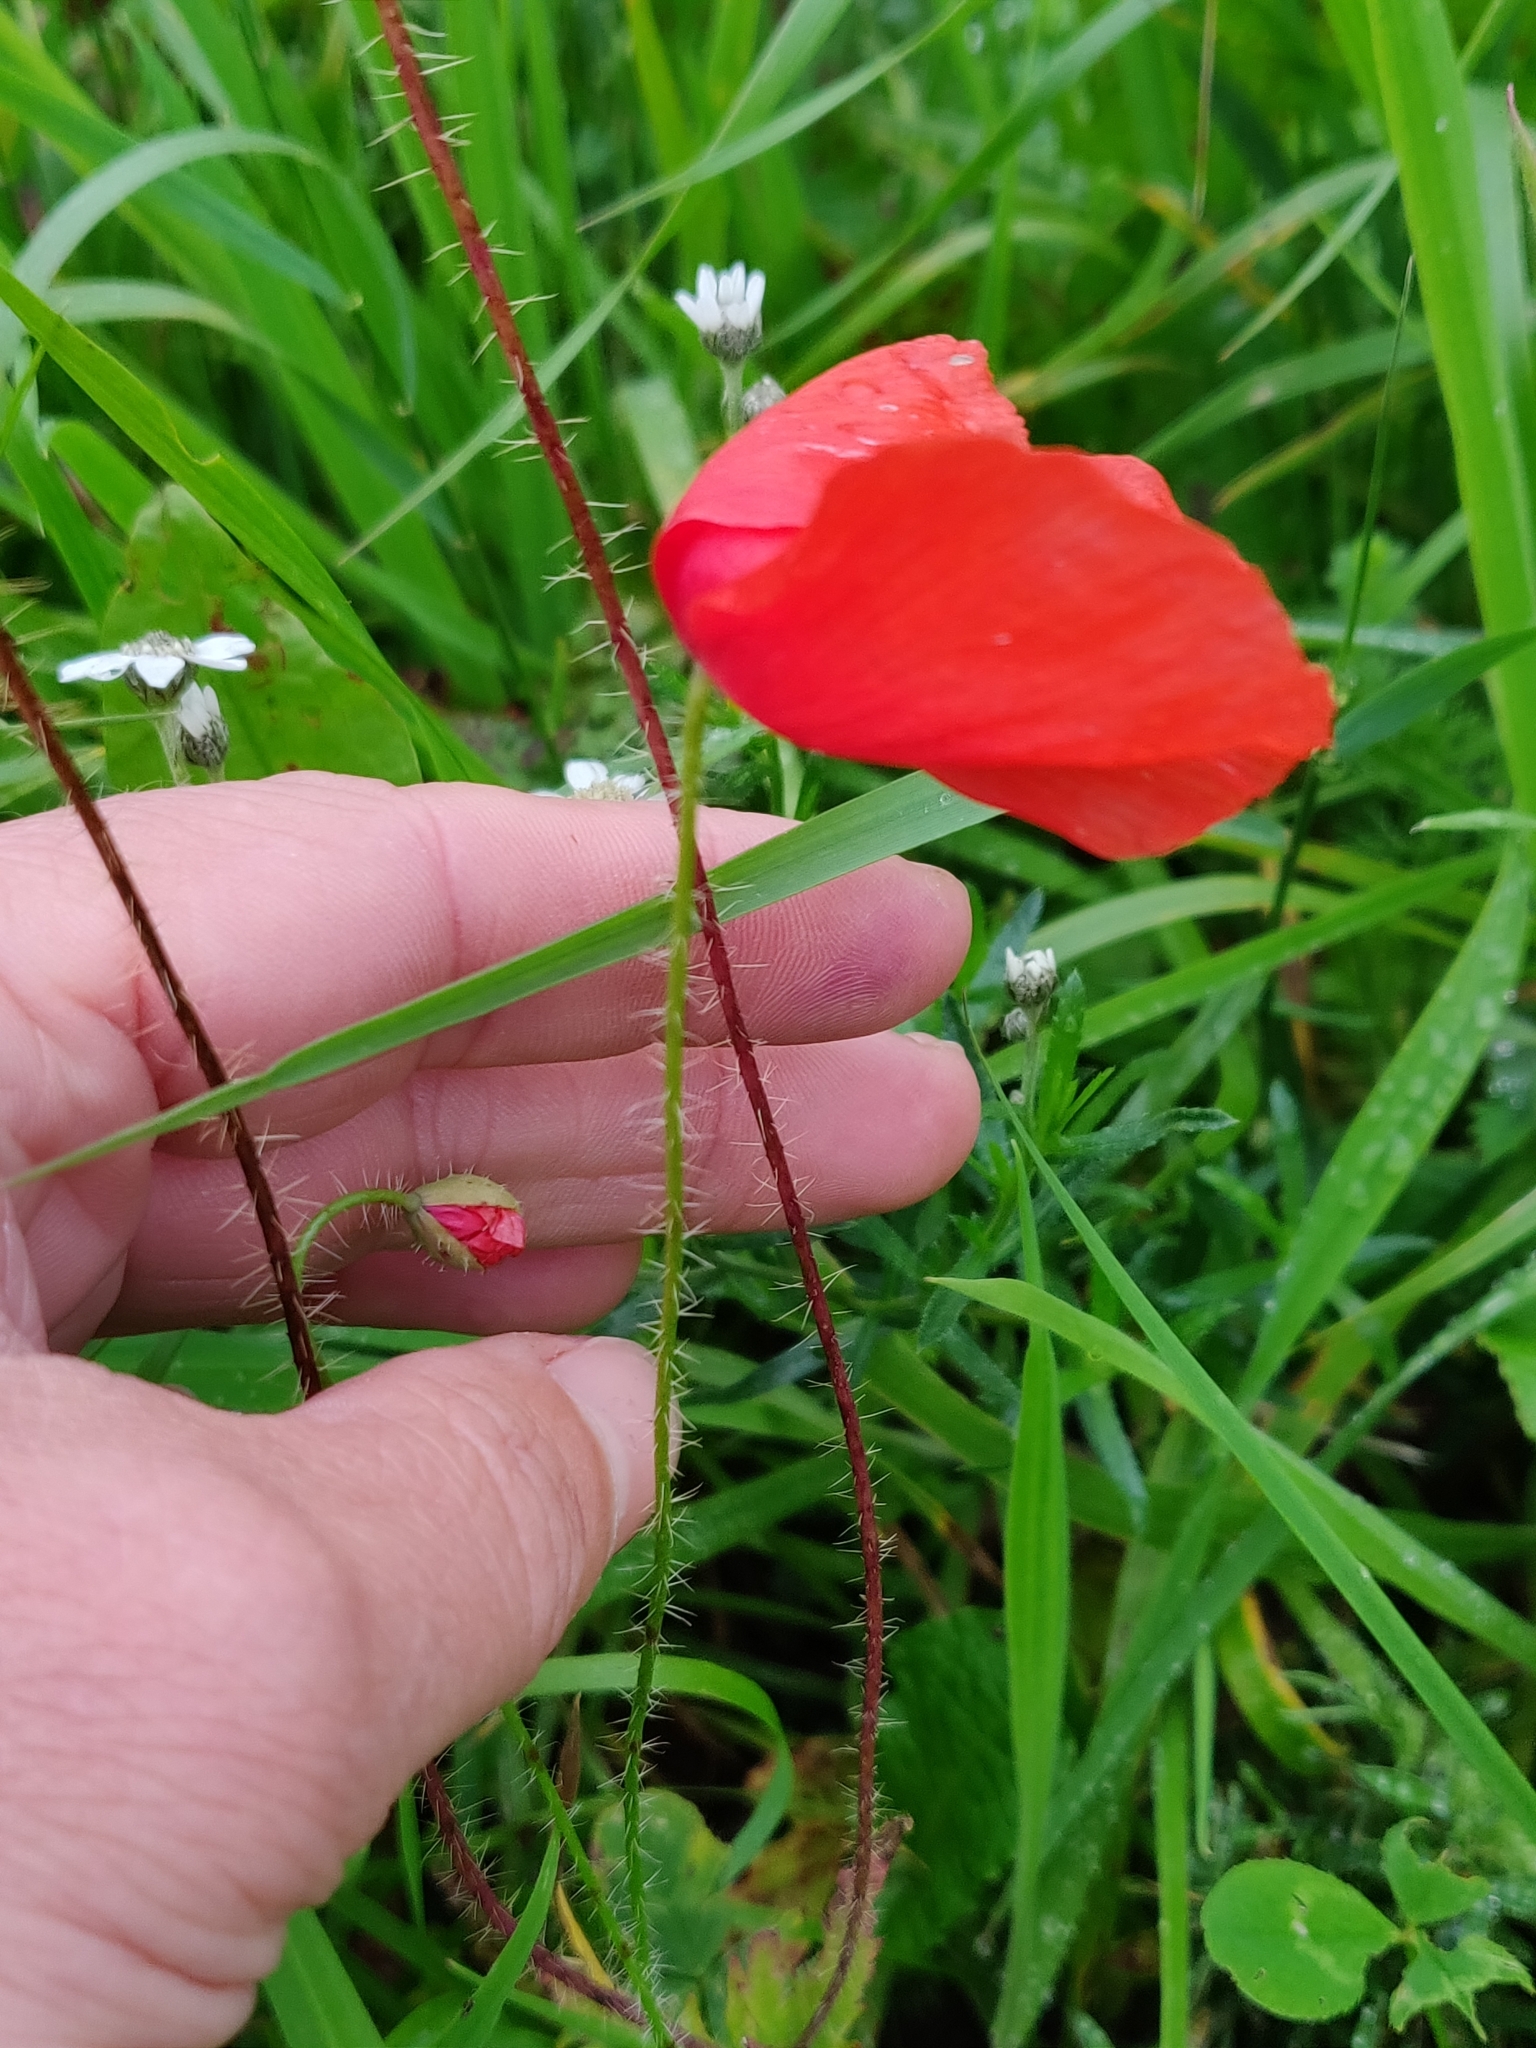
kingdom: Plantae
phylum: Tracheophyta
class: Magnoliopsida
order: Ranunculales
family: Papaveraceae
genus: Papaver
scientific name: Papaver rhoeas
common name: Corn poppy
